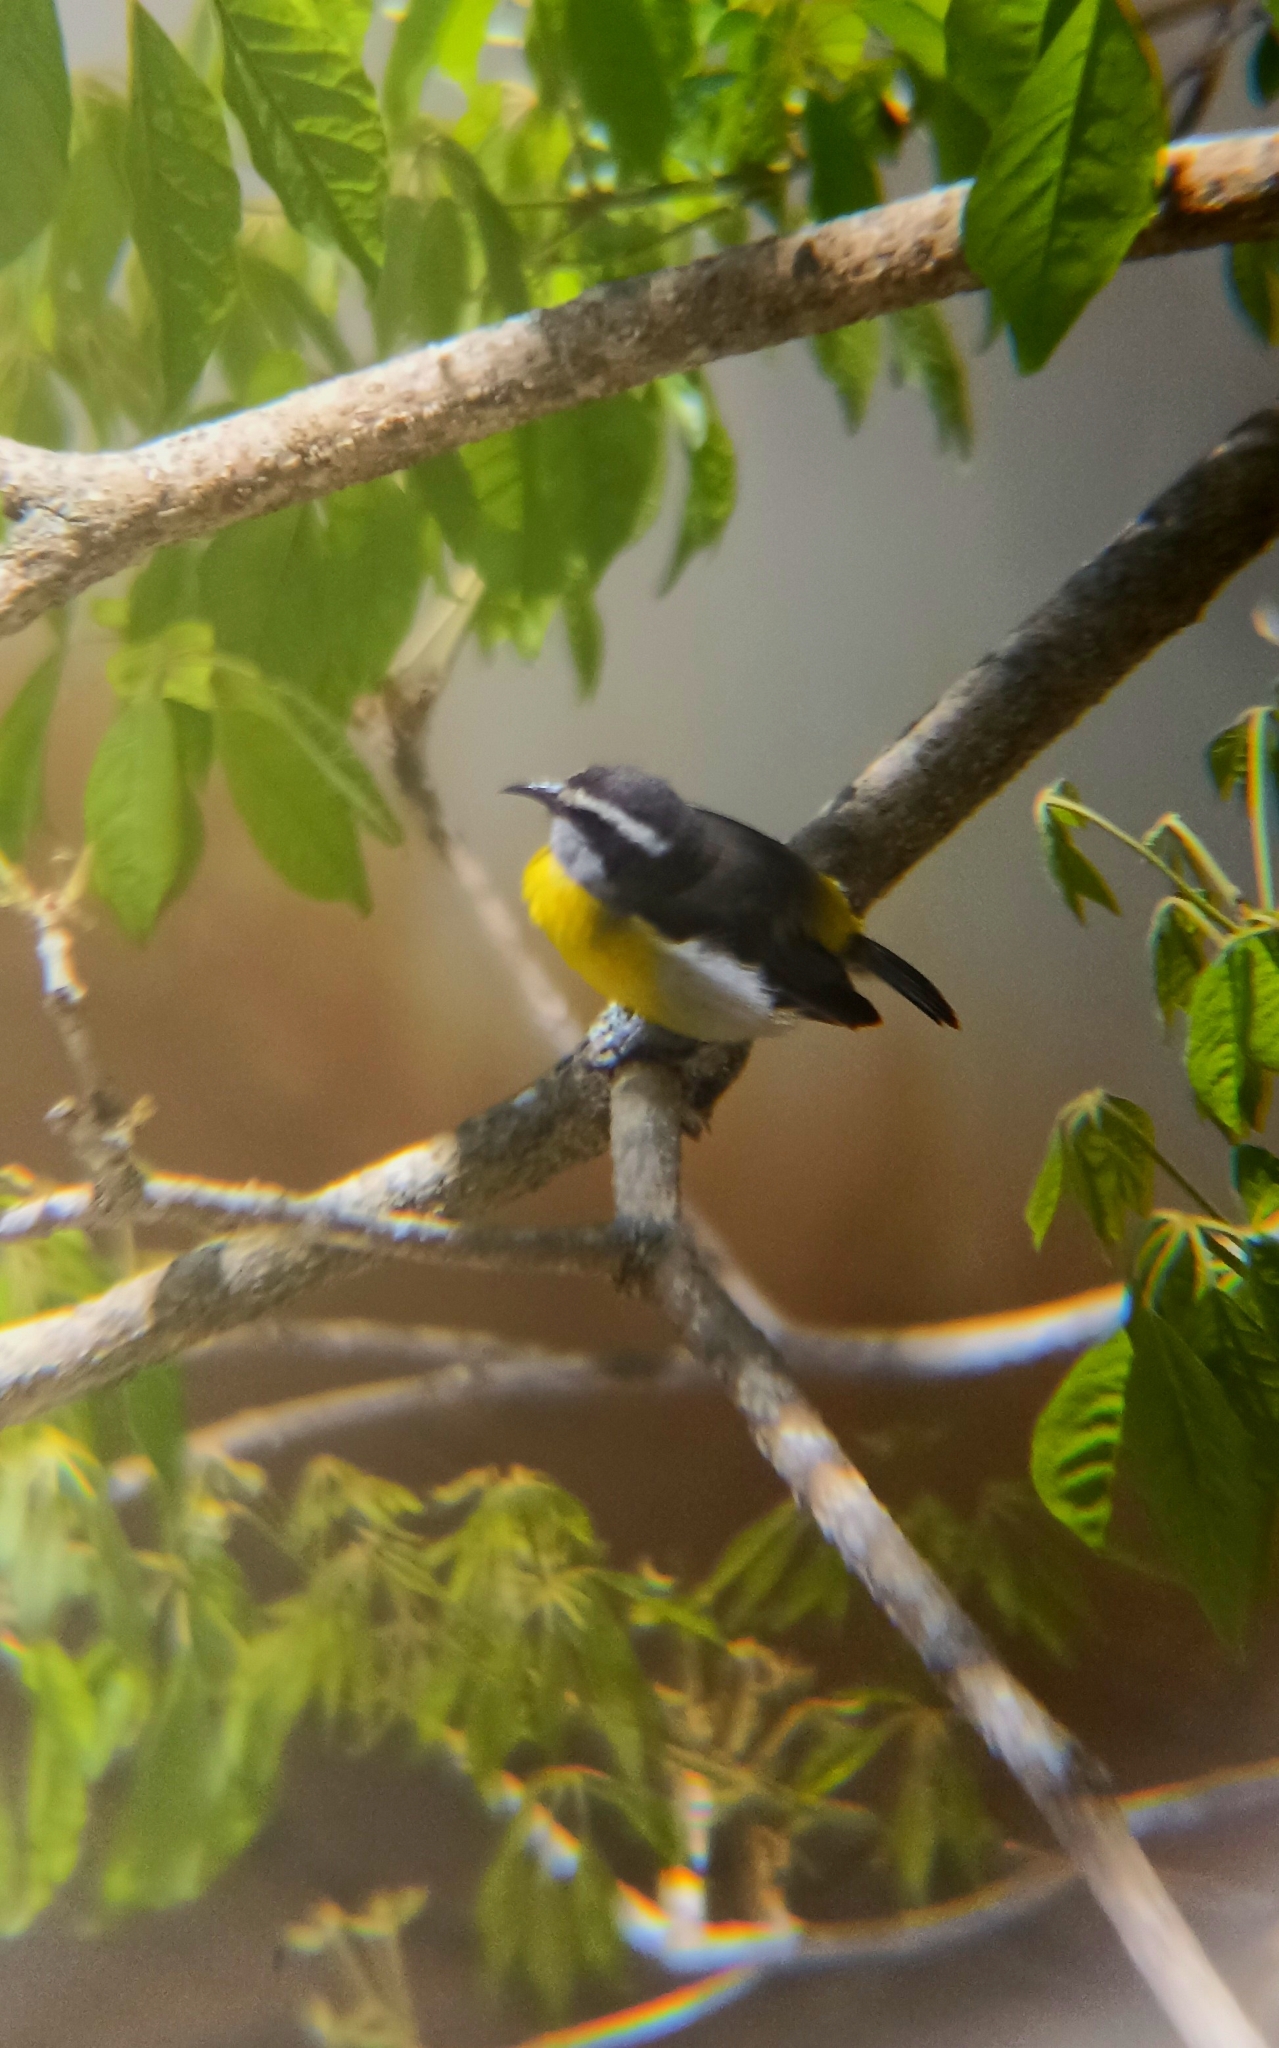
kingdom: Animalia
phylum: Chordata
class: Aves
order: Passeriformes
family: Thraupidae
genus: Coereba
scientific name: Coereba flaveola
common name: Bananaquit
